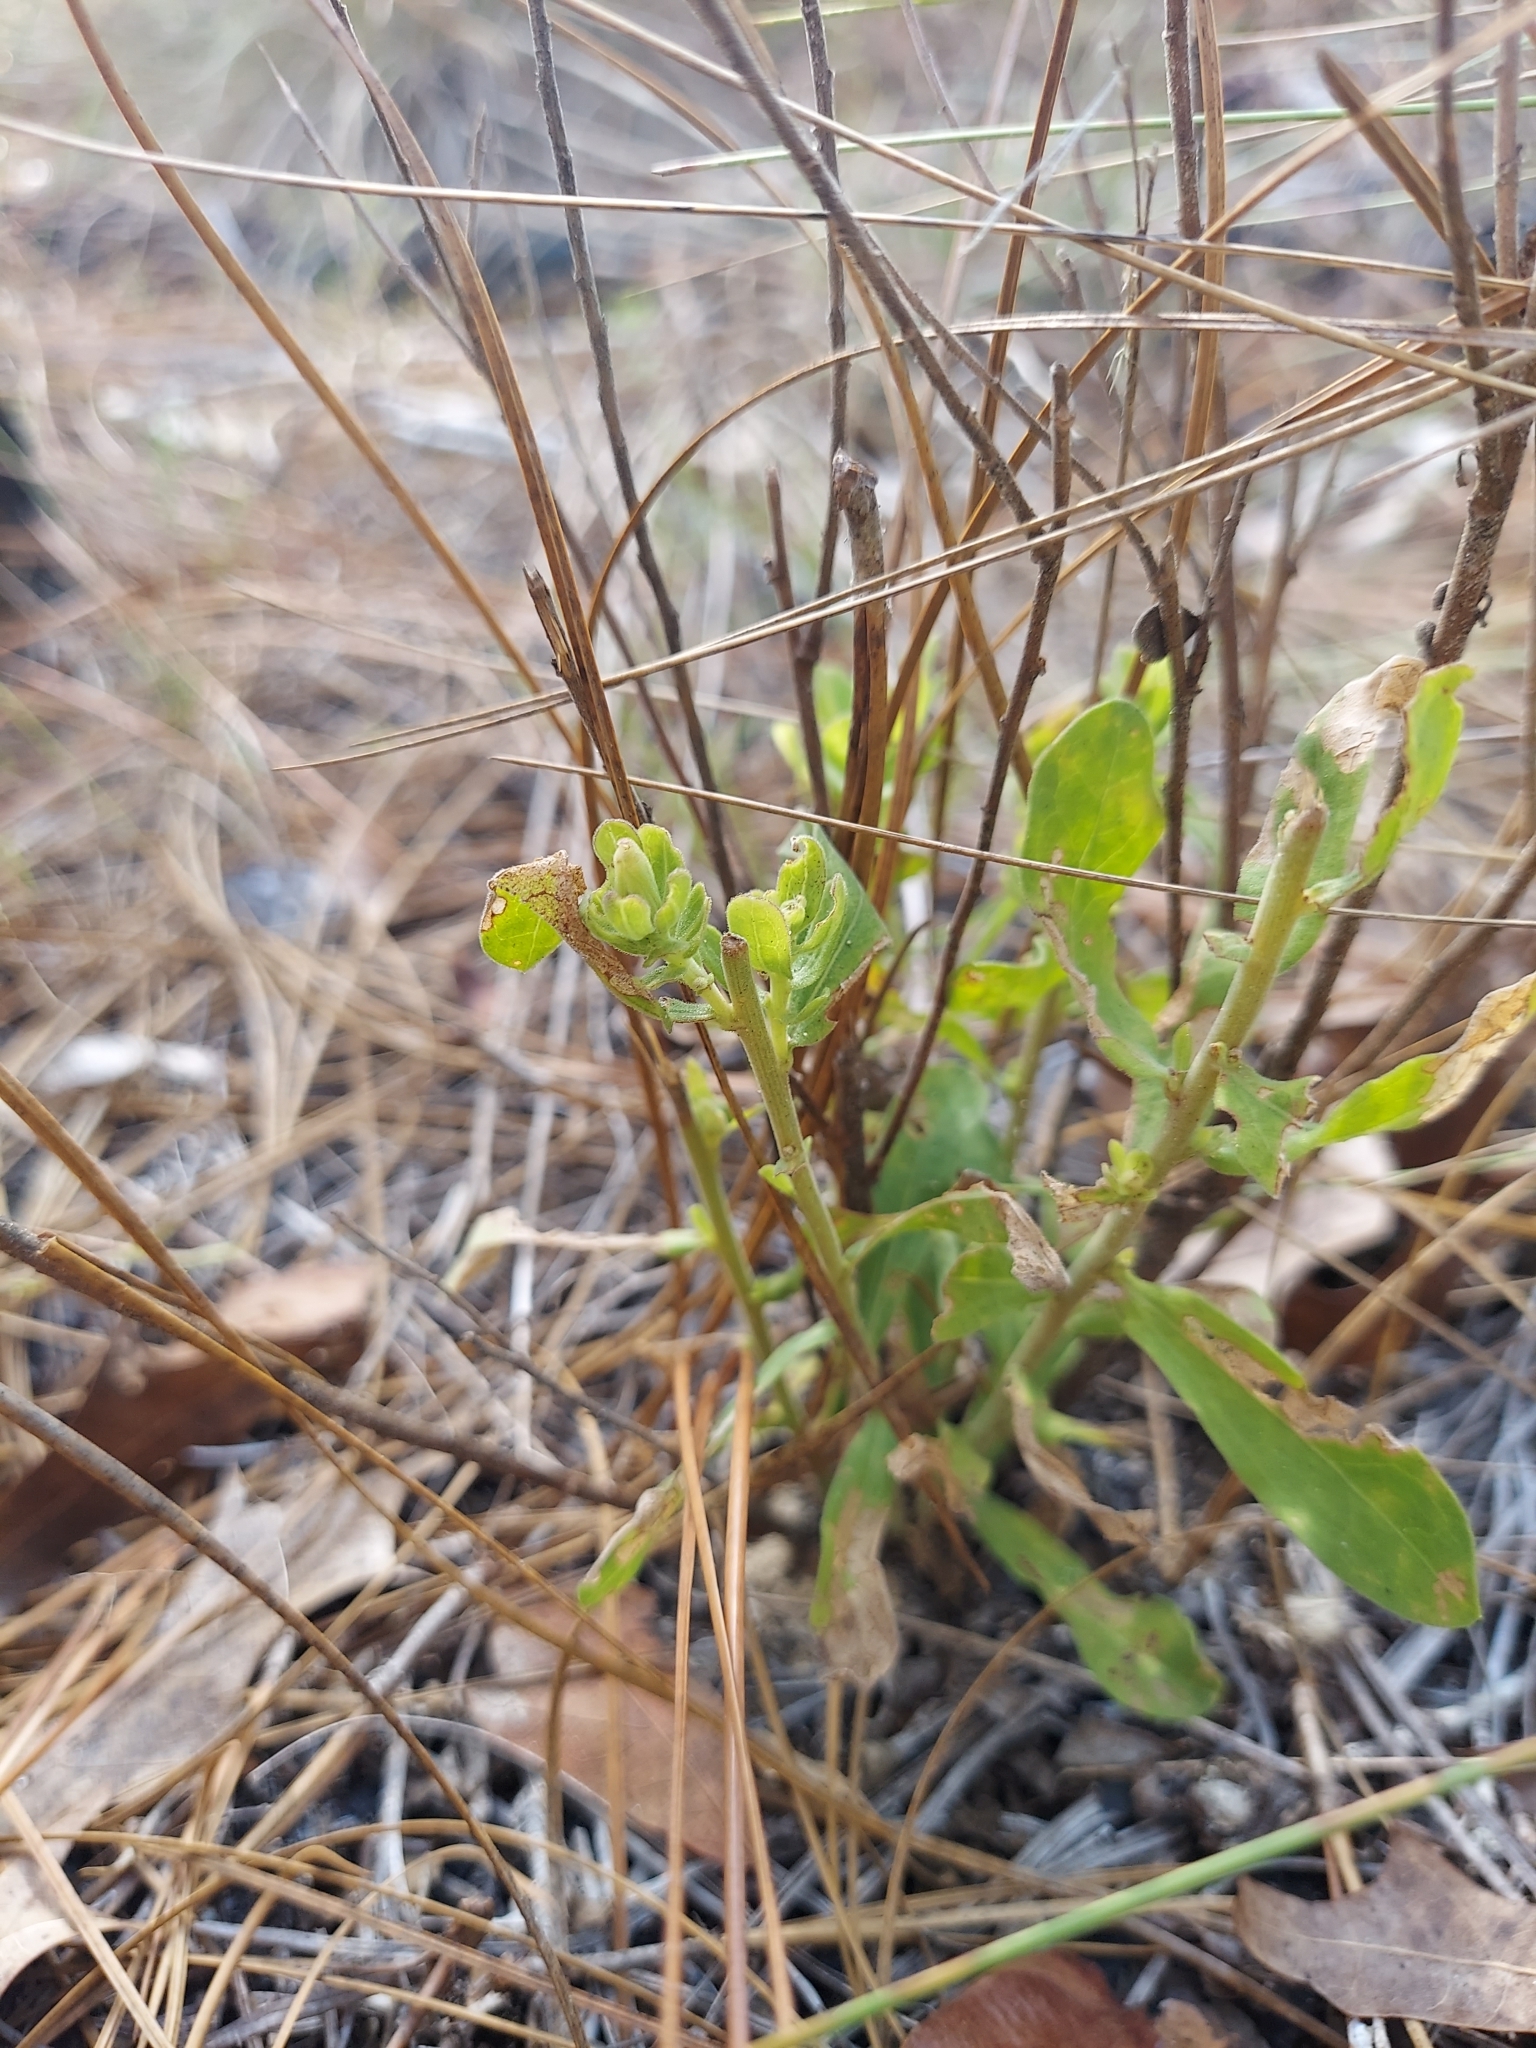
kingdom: Plantae
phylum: Tracheophyta
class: Magnoliopsida
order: Asterales
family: Asteraceae
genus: Oclemena
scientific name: Oclemena reticulata
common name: Pinebarren aster
